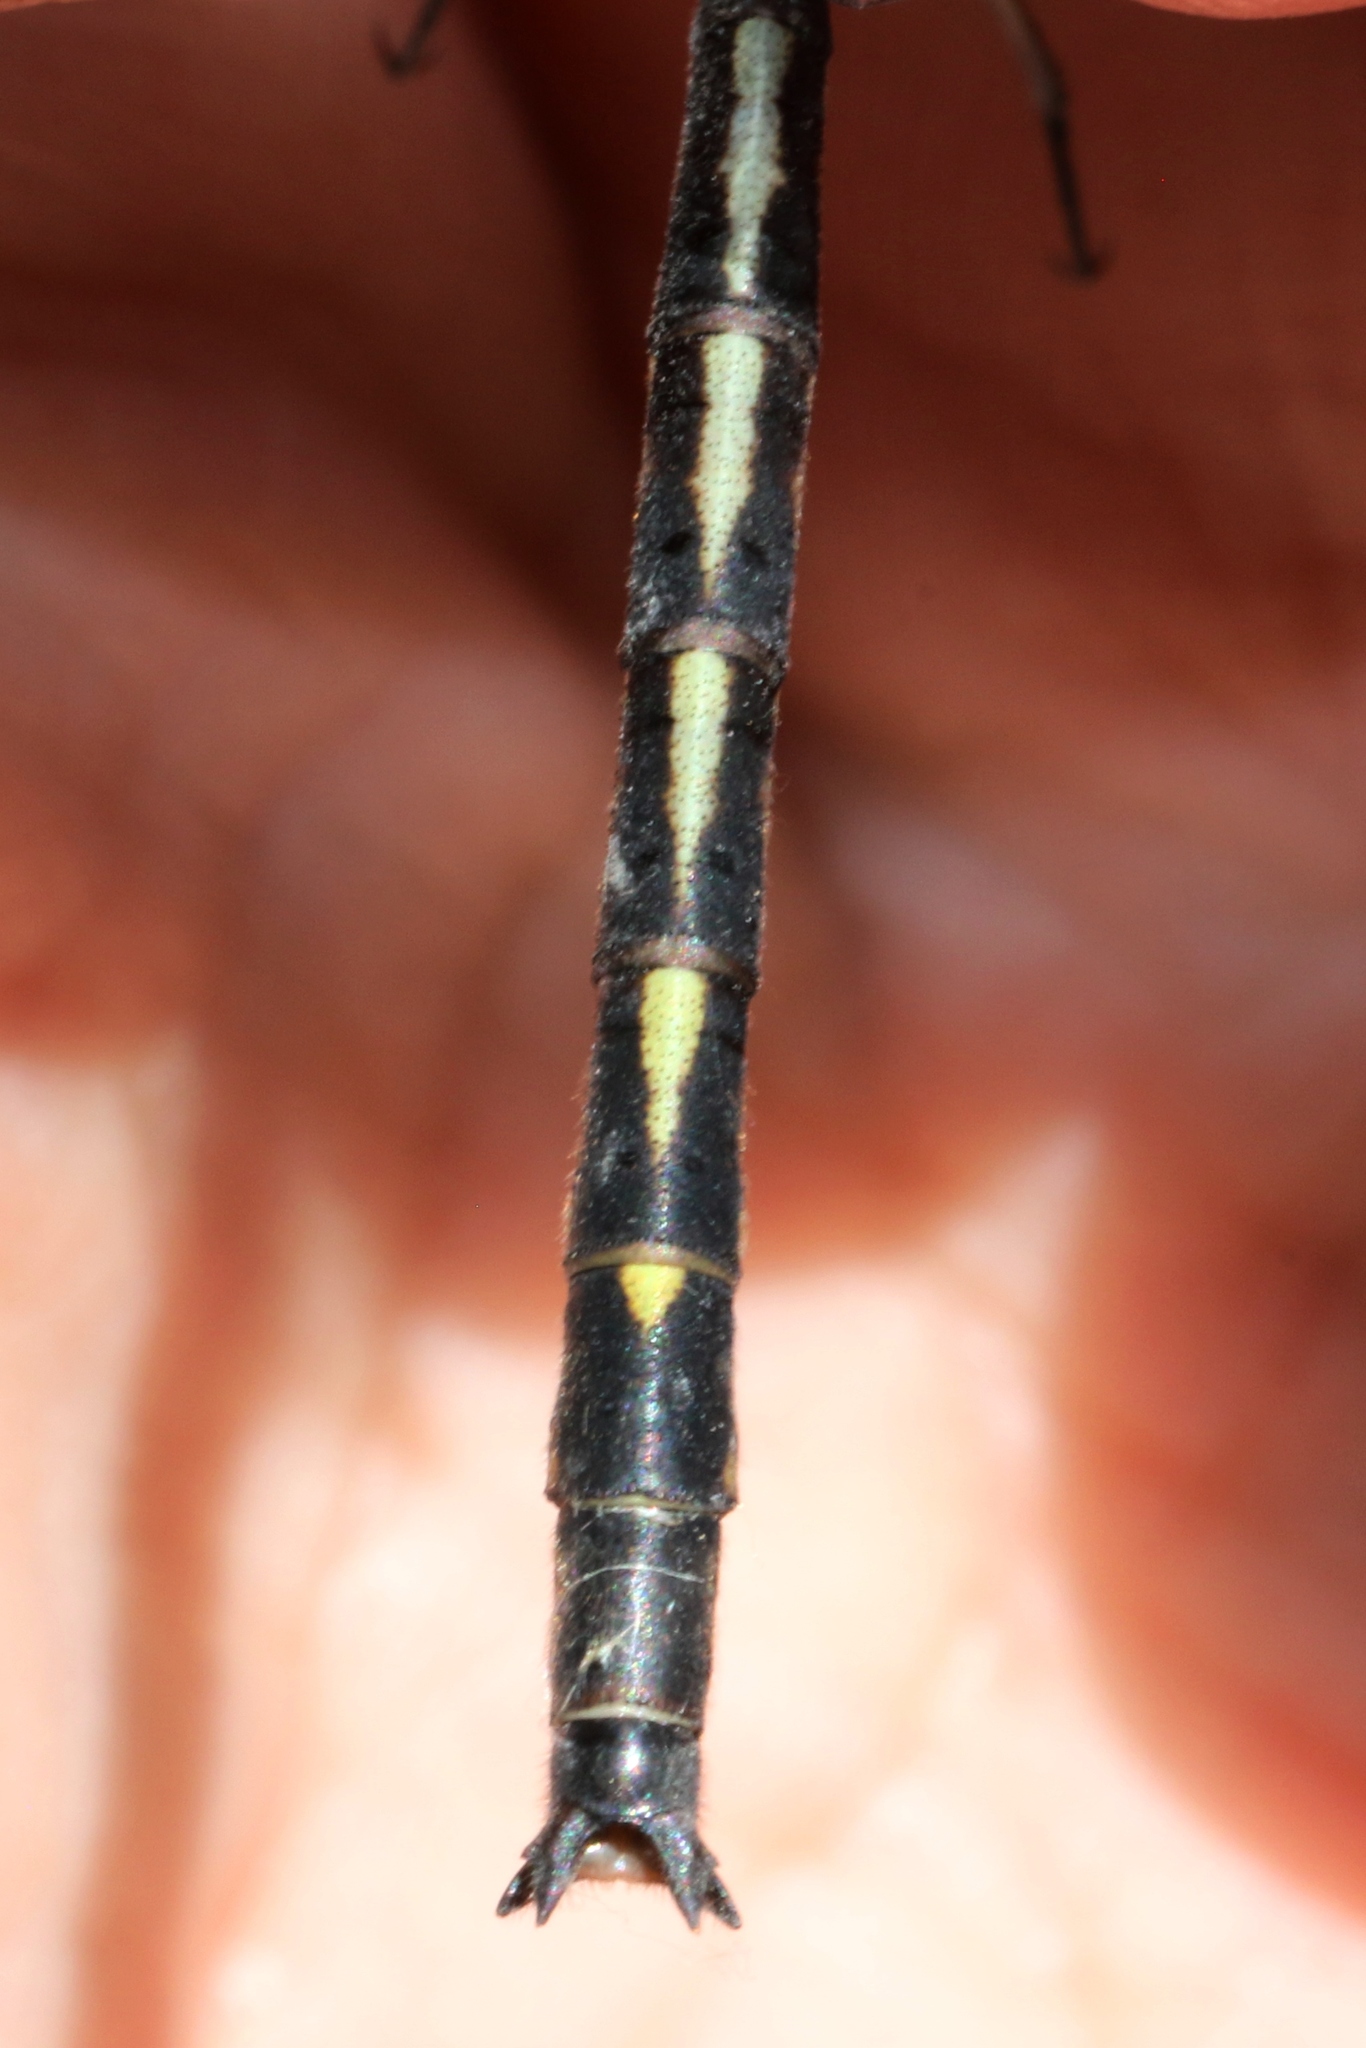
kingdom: Animalia
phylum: Arthropoda
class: Insecta
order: Odonata
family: Gomphidae
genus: Phanogomphus
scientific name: Phanogomphus spicatus
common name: Dusky clubtail
